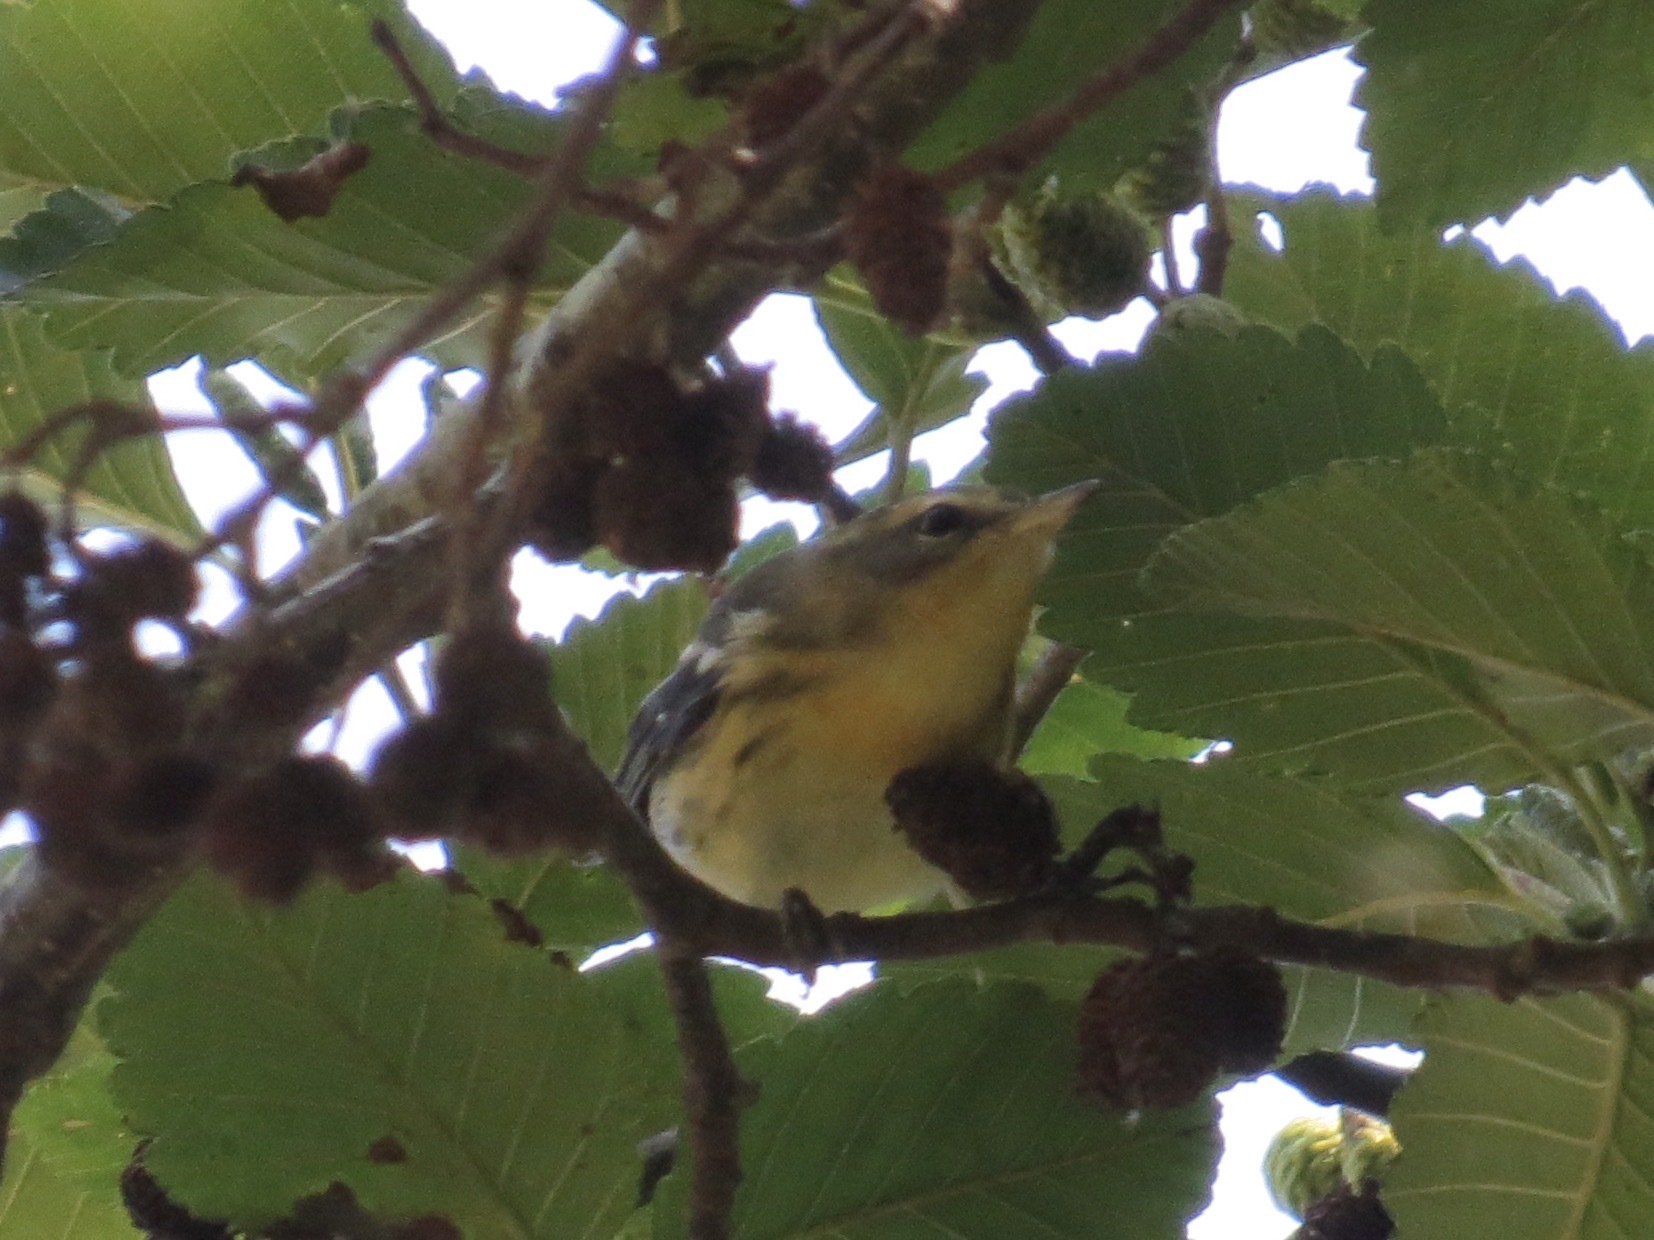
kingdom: Animalia
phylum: Chordata
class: Aves
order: Passeriformes
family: Parulidae
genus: Setophaga
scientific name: Setophaga fusca
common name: Blackburnian warbler
